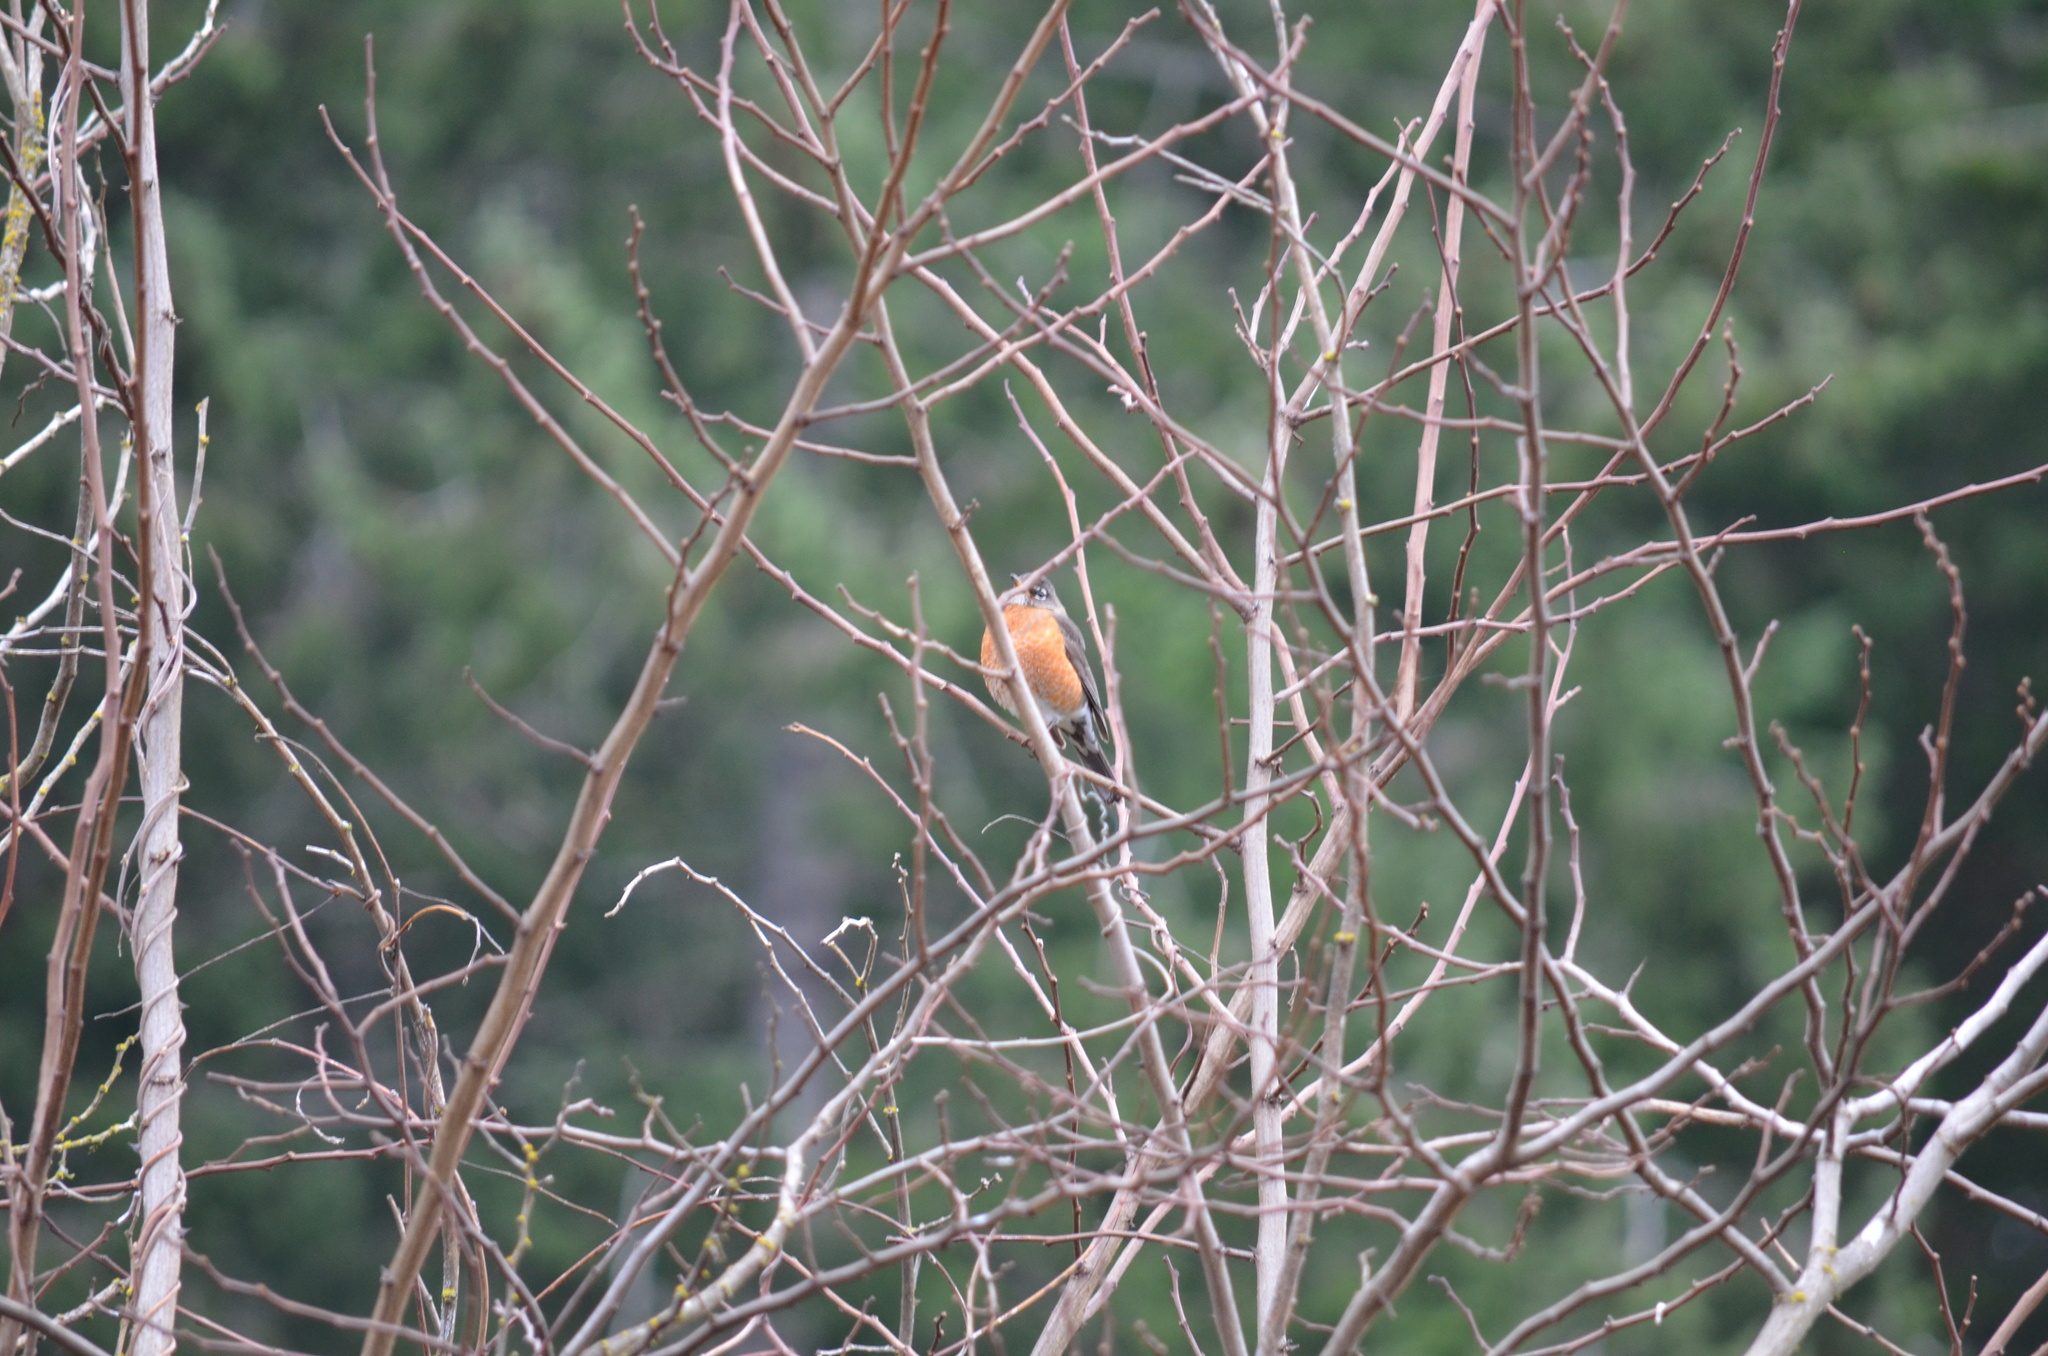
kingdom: Animalia
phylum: Chordata
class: Aves
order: Passeriformes
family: Turdidae
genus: Turdus
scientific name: Turdus migratorius
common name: American robin
